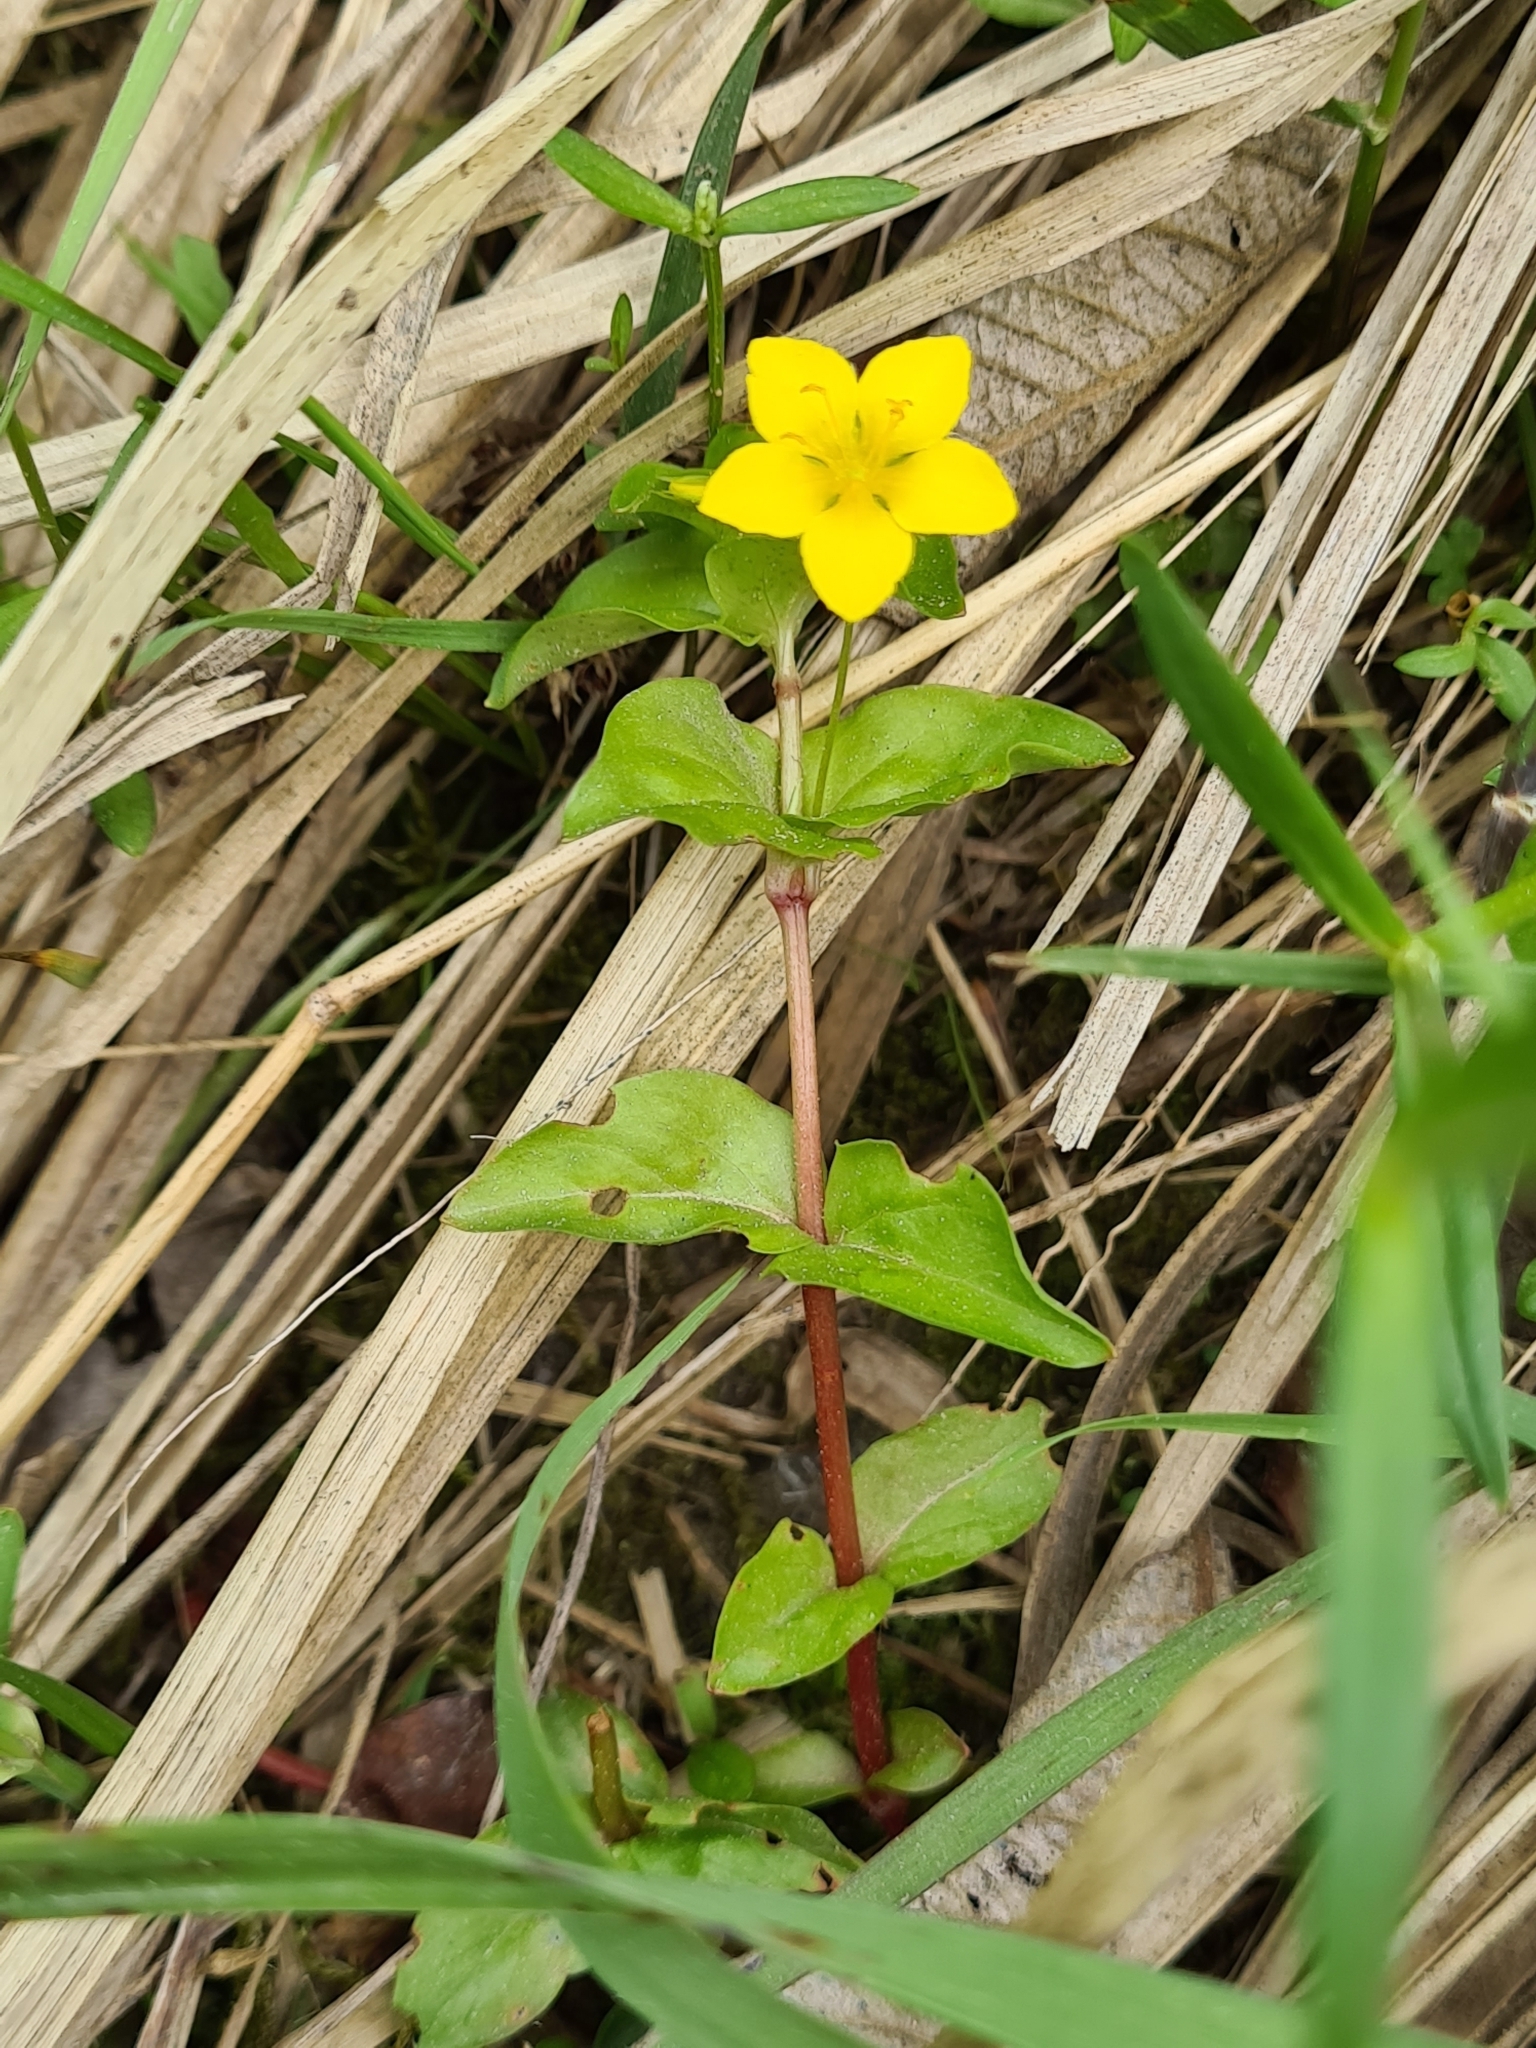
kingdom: Plantae
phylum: Tracheophyta
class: Magnoliopsida
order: Ericales
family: Primulaceae
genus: Lysimachia
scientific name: Lysimachia nemorum
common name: Yellow pimpernel
